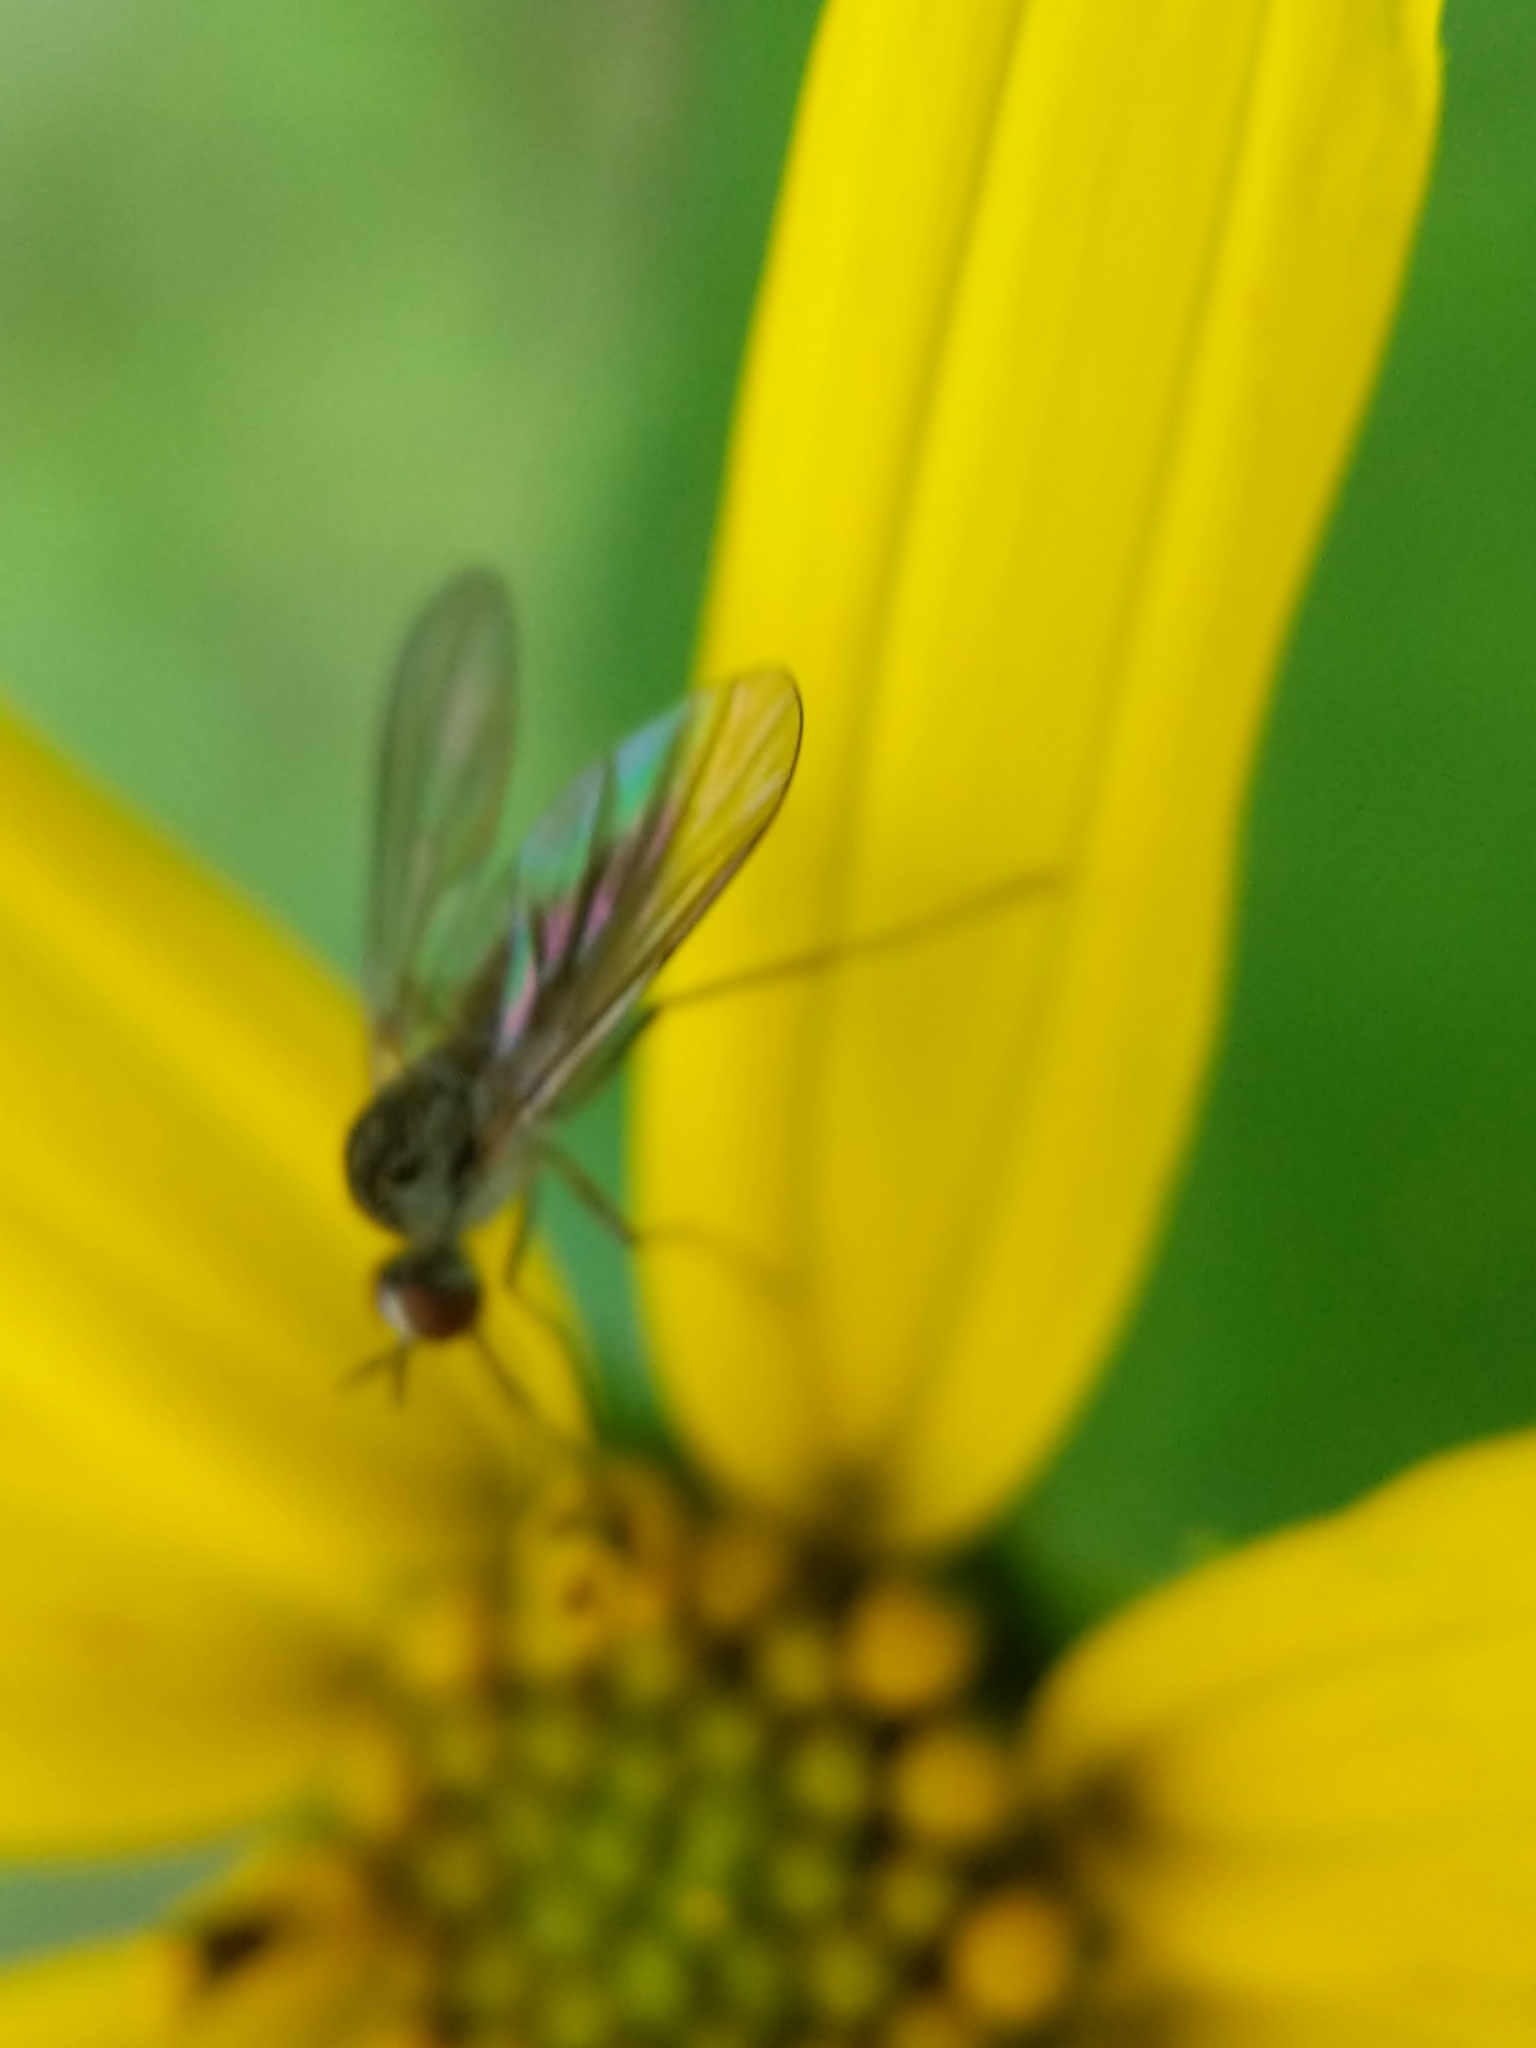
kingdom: Animalia
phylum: Arthropoda
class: Insecta
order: Diptera
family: Bombyliidae
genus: Geron
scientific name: Geron calvus
